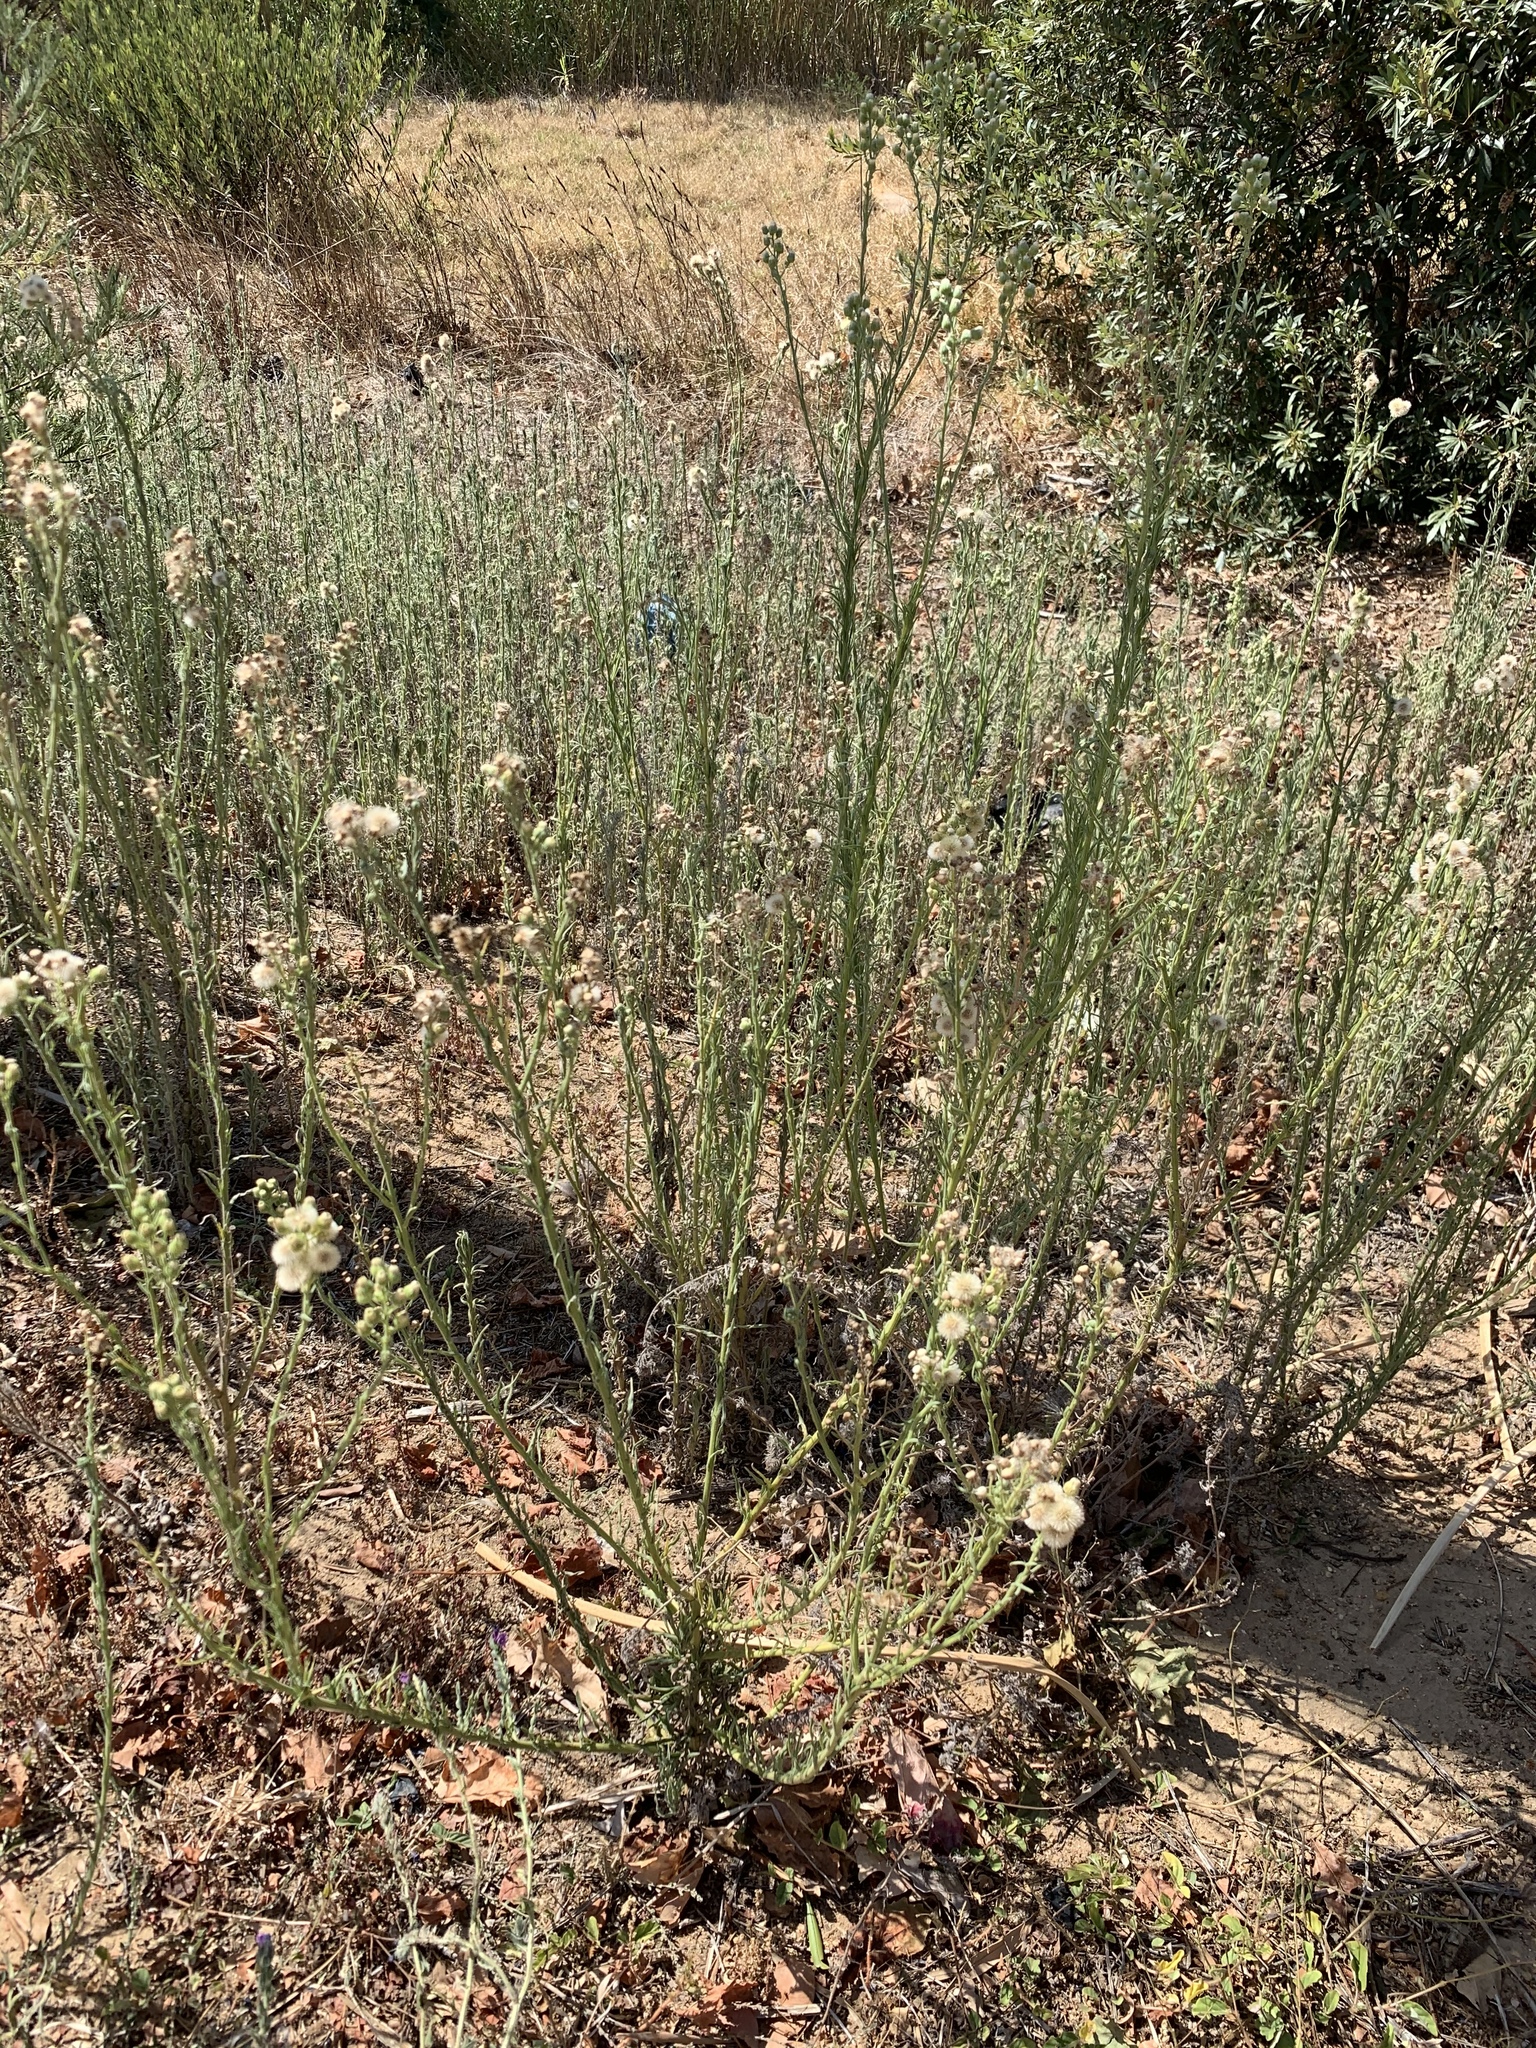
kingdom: Plantae
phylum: Tracheophyta
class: Magnoliopsida
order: Asterales
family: Asteraceae
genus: Erigeron
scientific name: Erigeron bonariensis
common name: Argentine fleabane
